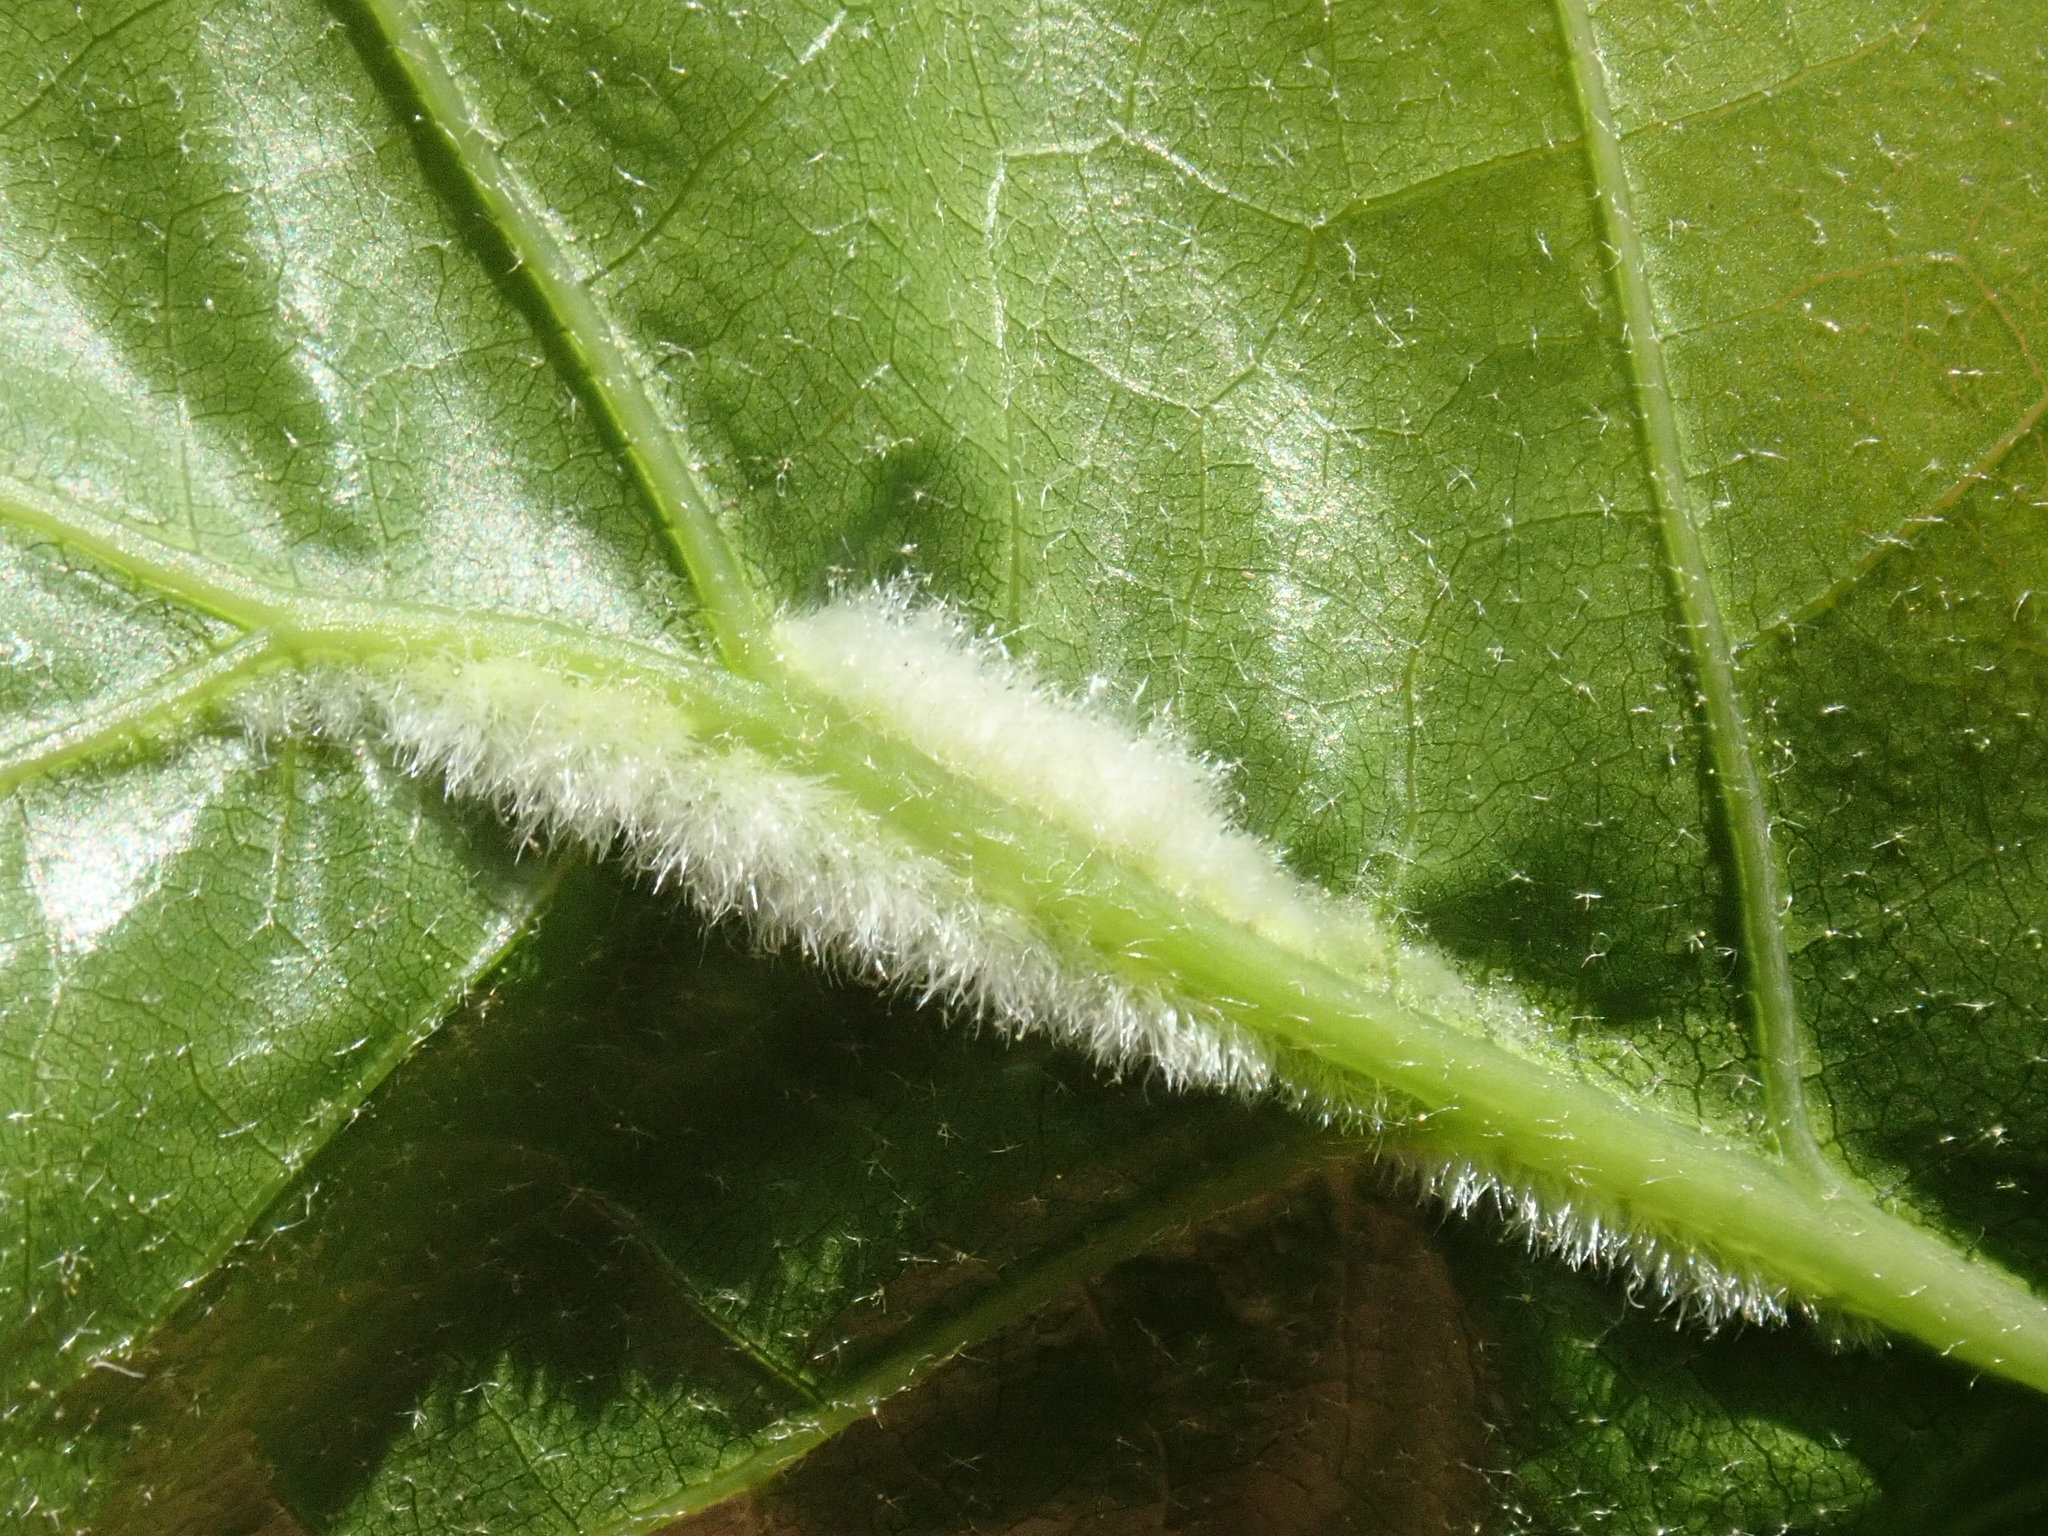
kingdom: Animalia
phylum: Arthropoda
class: Insecta
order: Diptera
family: Cecidomyiidae
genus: Macrodiplosis
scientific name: Macrodiplosis niveipila
